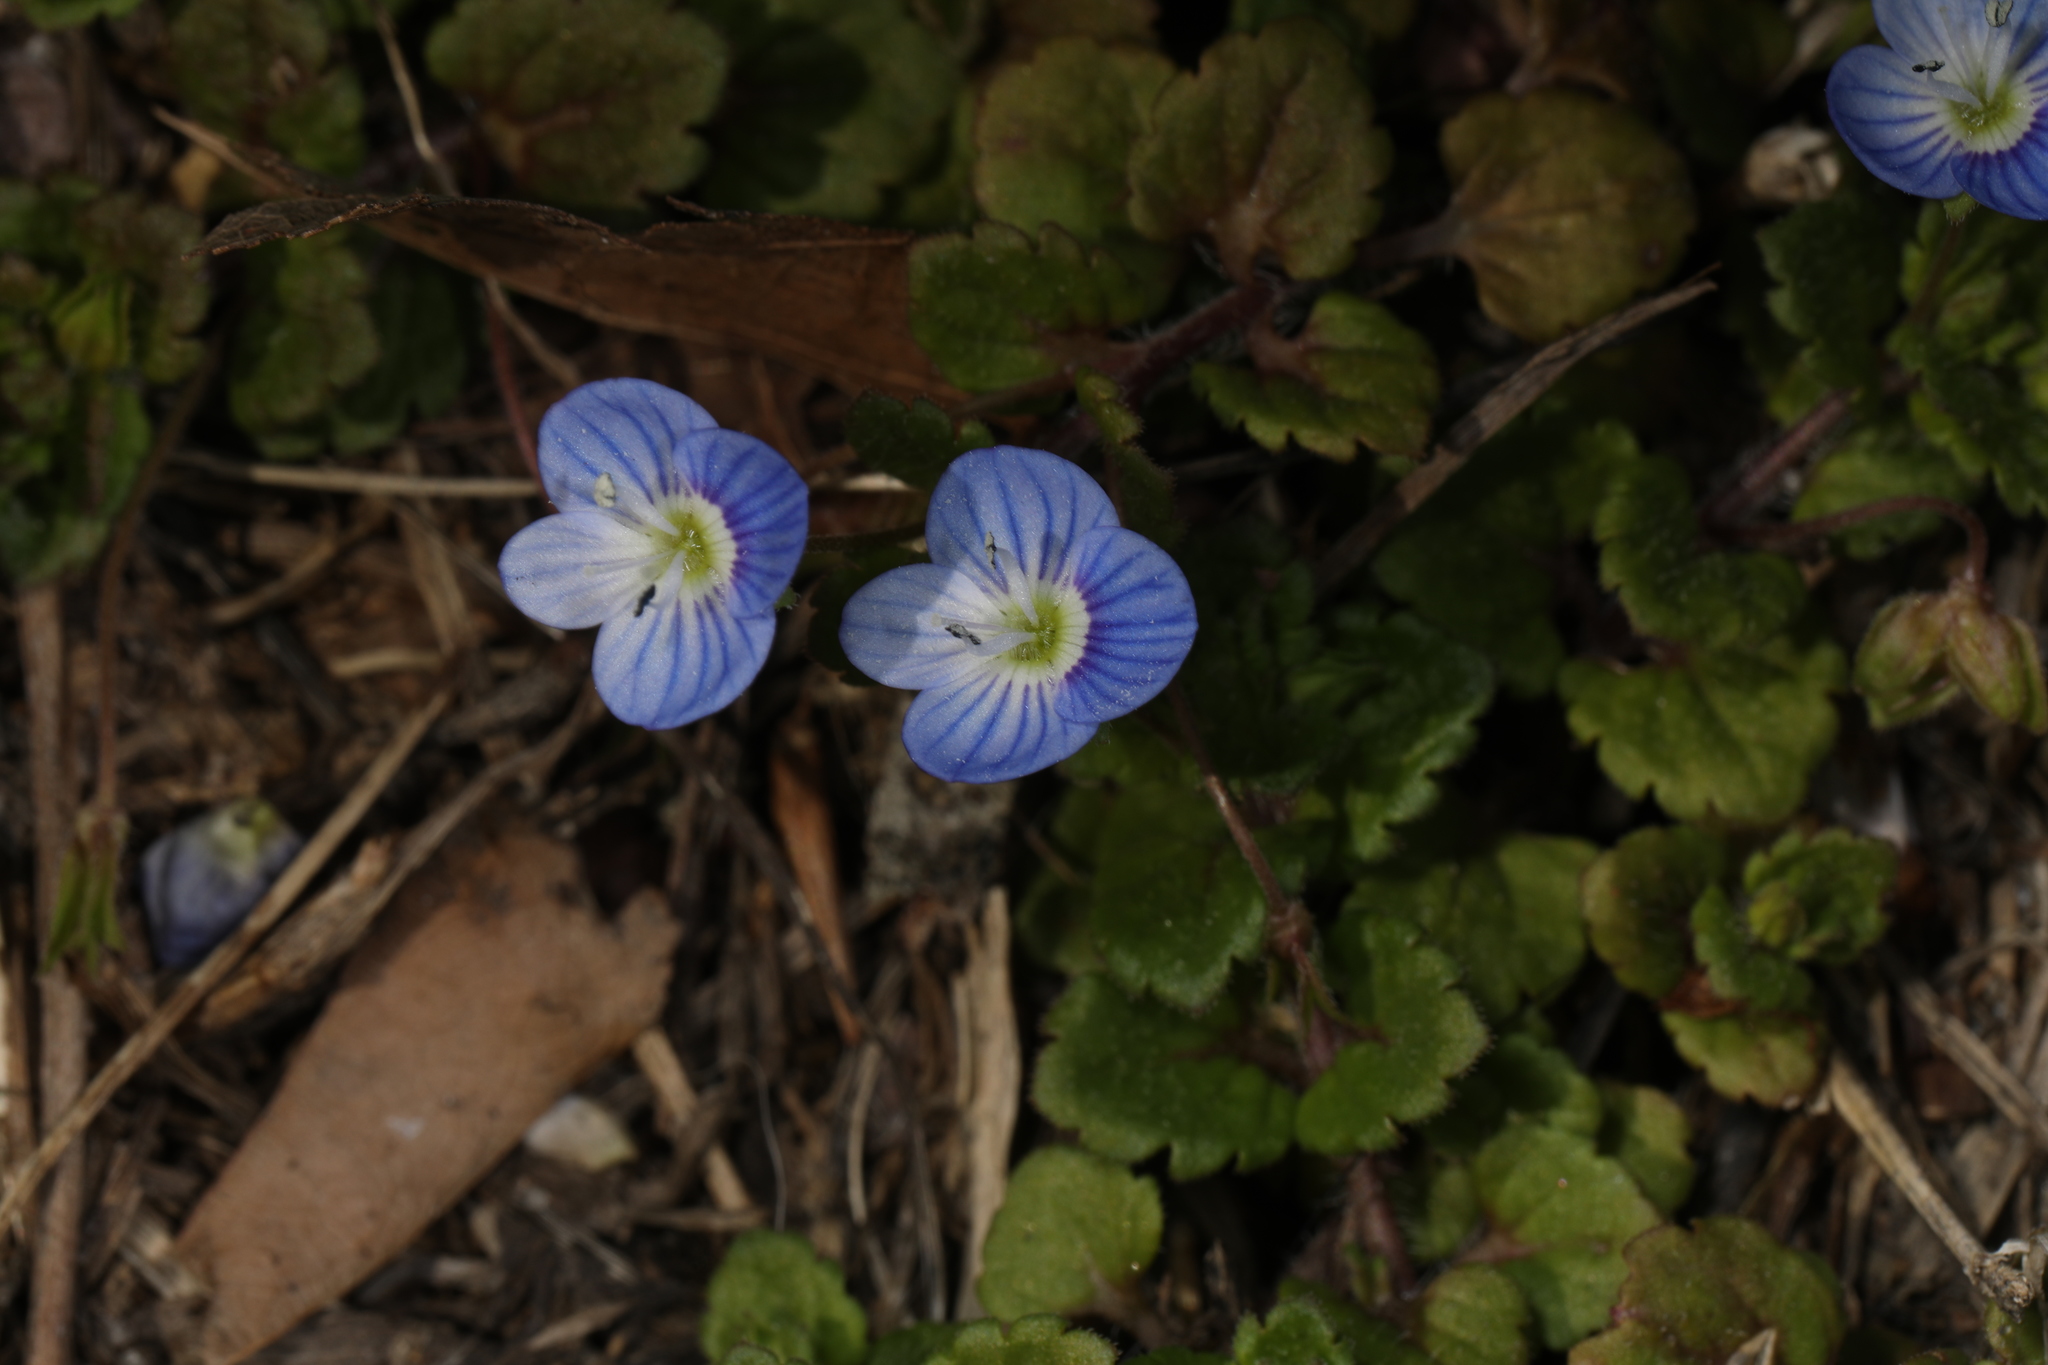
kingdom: Plantae
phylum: Tracheophyta
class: Magnoliopsida
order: Lamiales
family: Plantaginaceae
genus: Veronica
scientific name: Veronica persica
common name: Common field-speedwell
